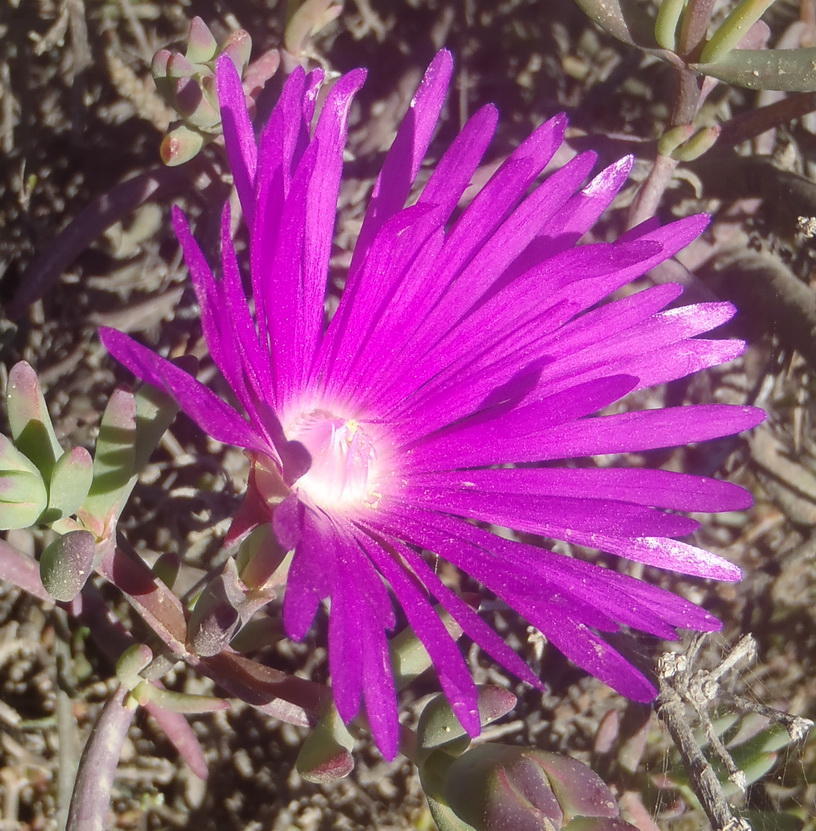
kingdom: Plantae
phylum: Tracheophyta
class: Magnoliopsida
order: Caryophyllales
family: Aizoaceae
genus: Lampranthus
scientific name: Lampranthus affinis
